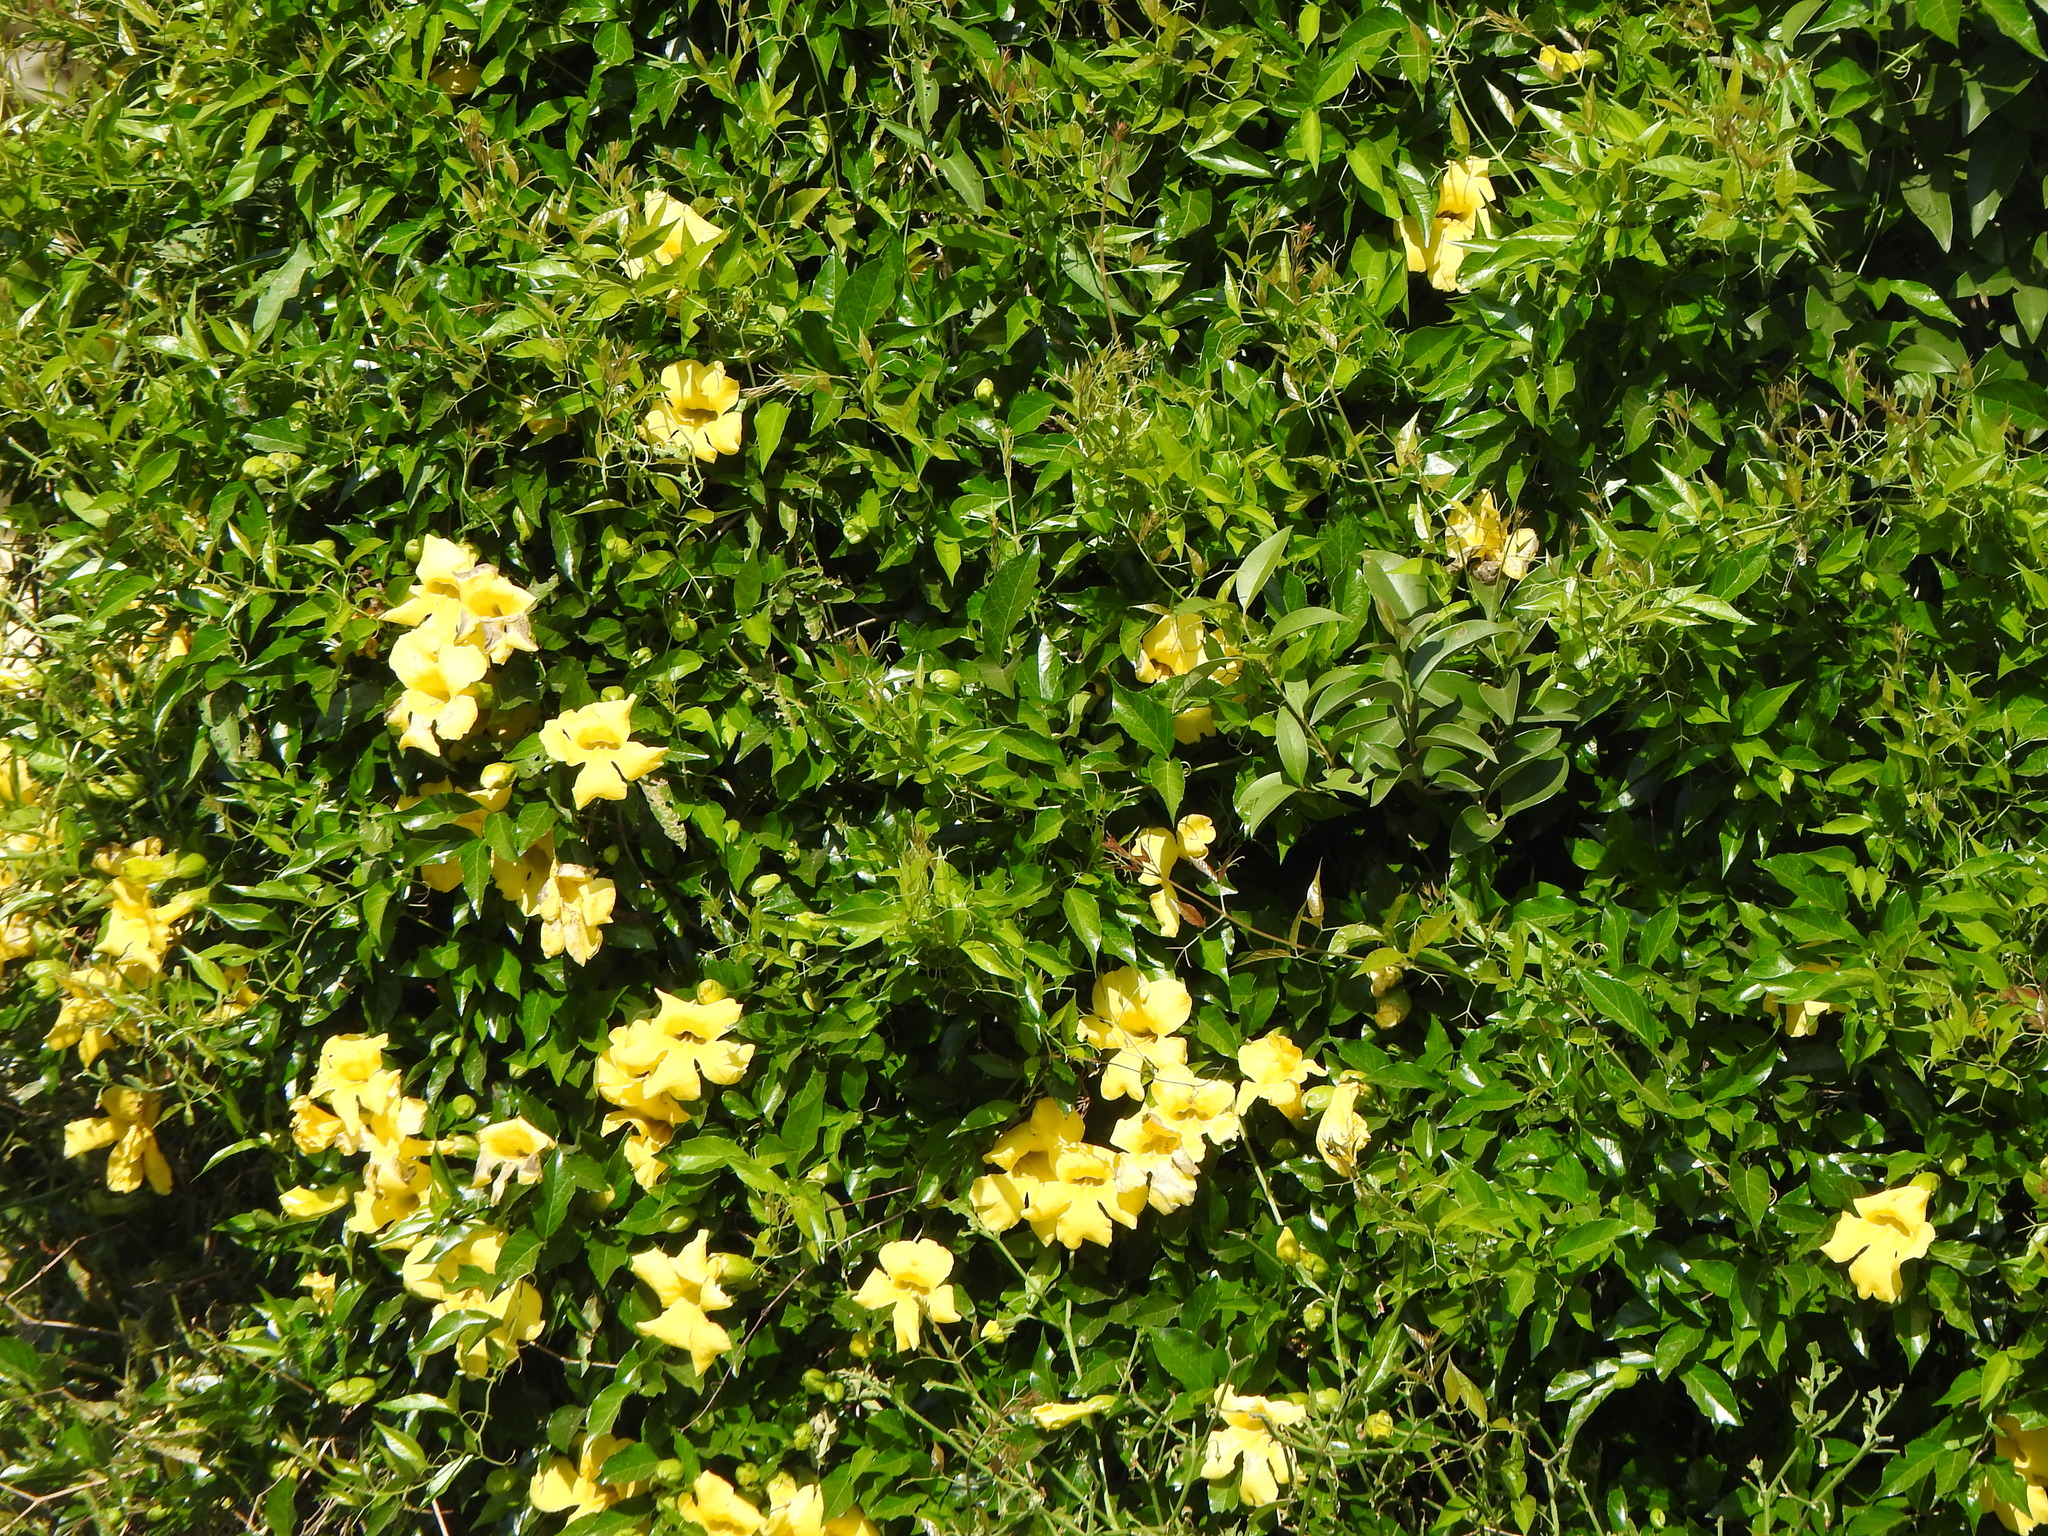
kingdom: Plantae
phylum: Tracheophyta
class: Magnoliopsida
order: Lamiales
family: Bignoniaceae
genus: Dolichandra
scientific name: Dolichandra unguis-cati
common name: Catclaw vine
